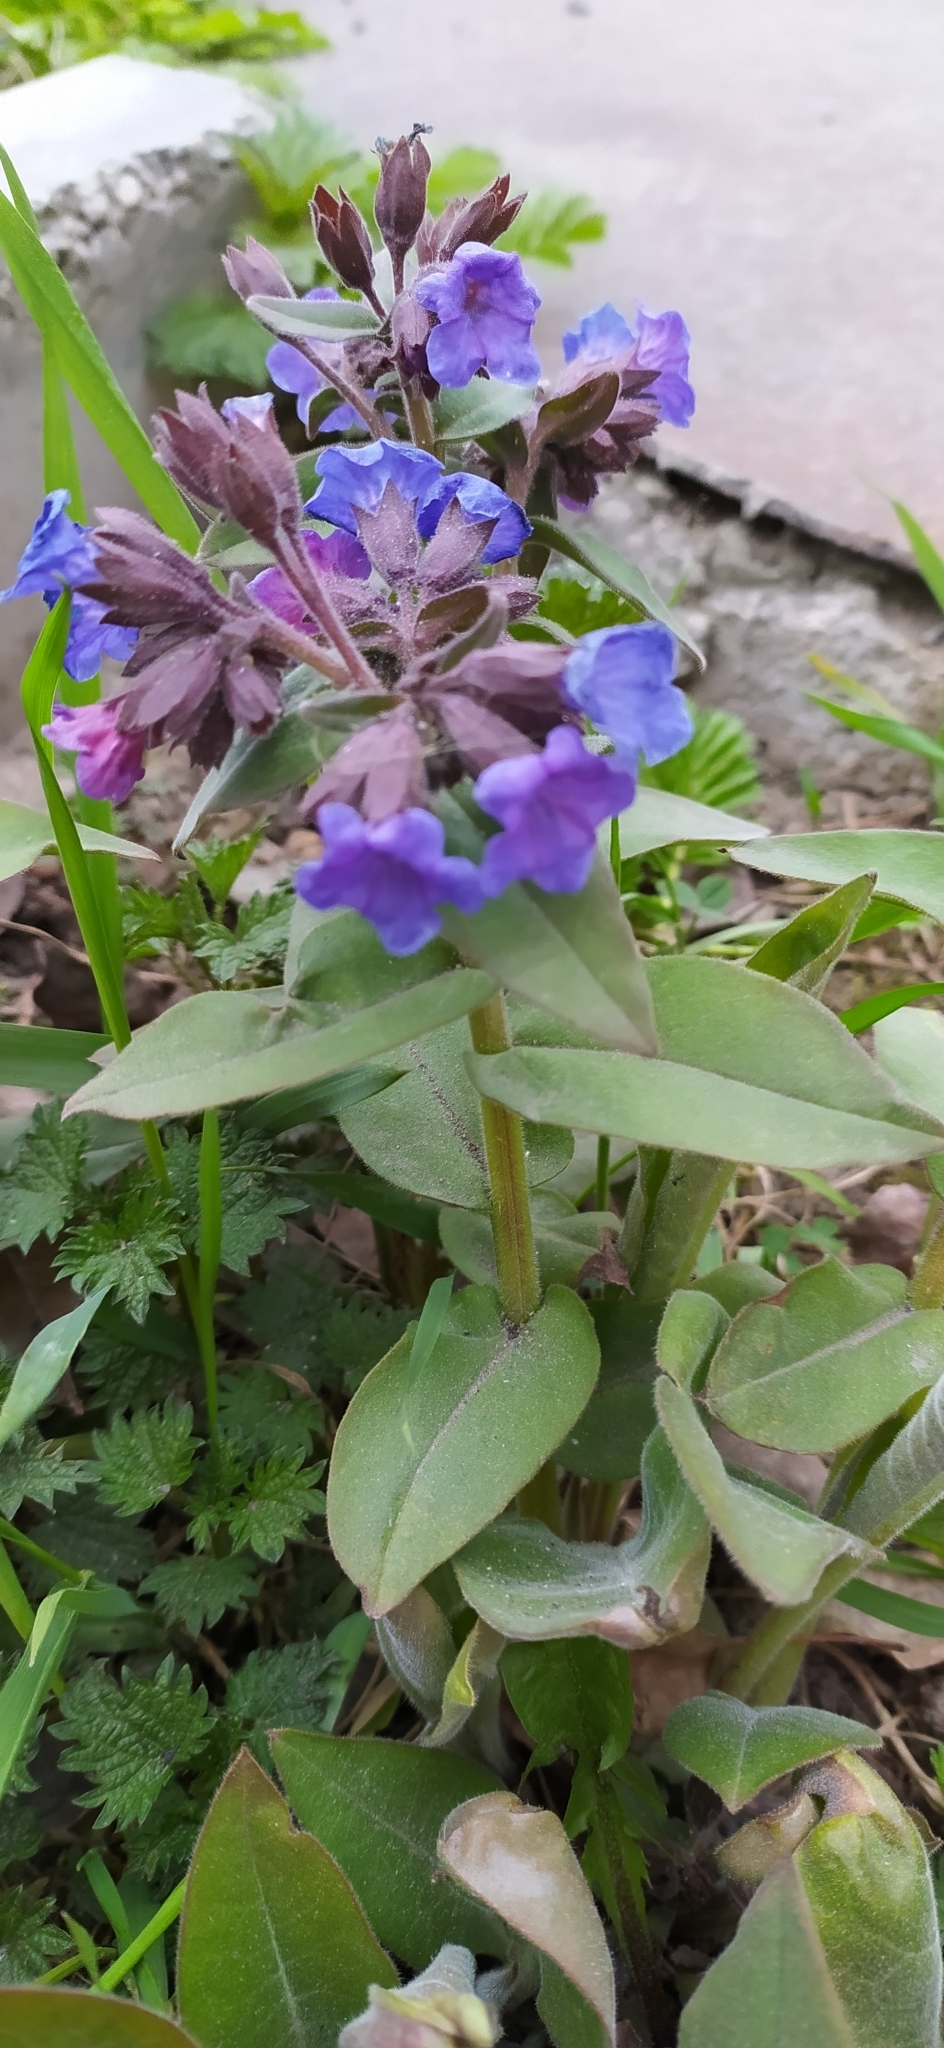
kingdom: Plantae
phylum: Tracheophyta
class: Magnoliopsida
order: Boraginales
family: Boraginaceae
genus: Pulmonaria
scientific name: Pulmonaria mollis
